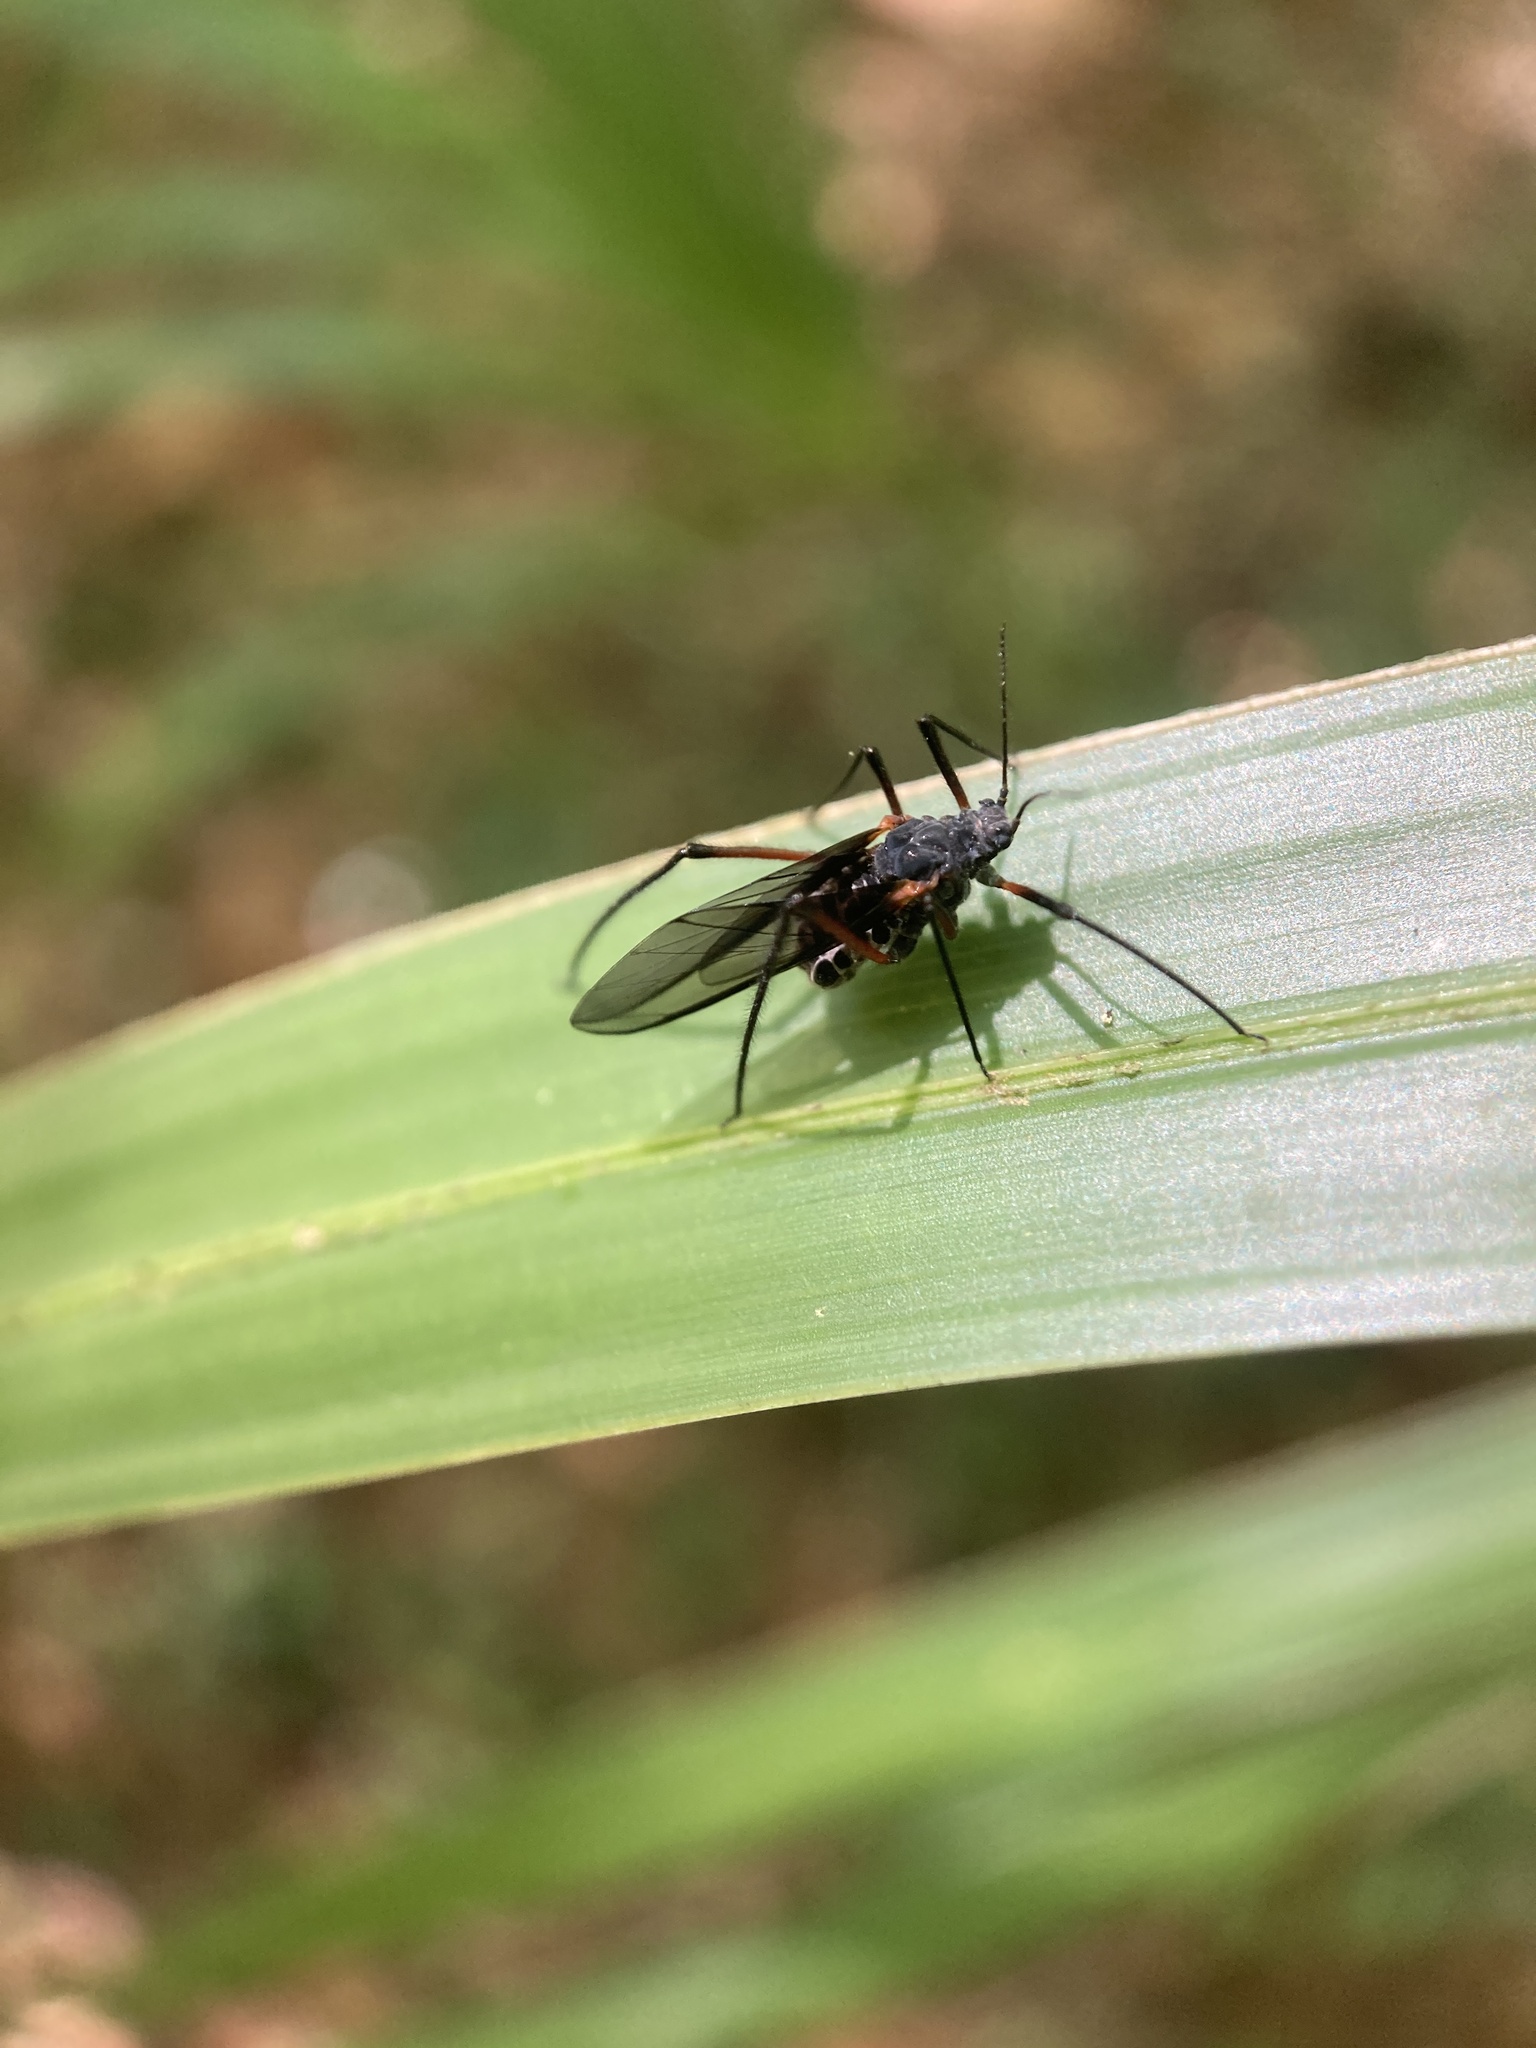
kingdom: Animalia
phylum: Arthropoda
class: Insecta
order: Hemiptera
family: Aphididae
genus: Longistigma
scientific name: Longistigma caryae
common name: Giant bark aphid
